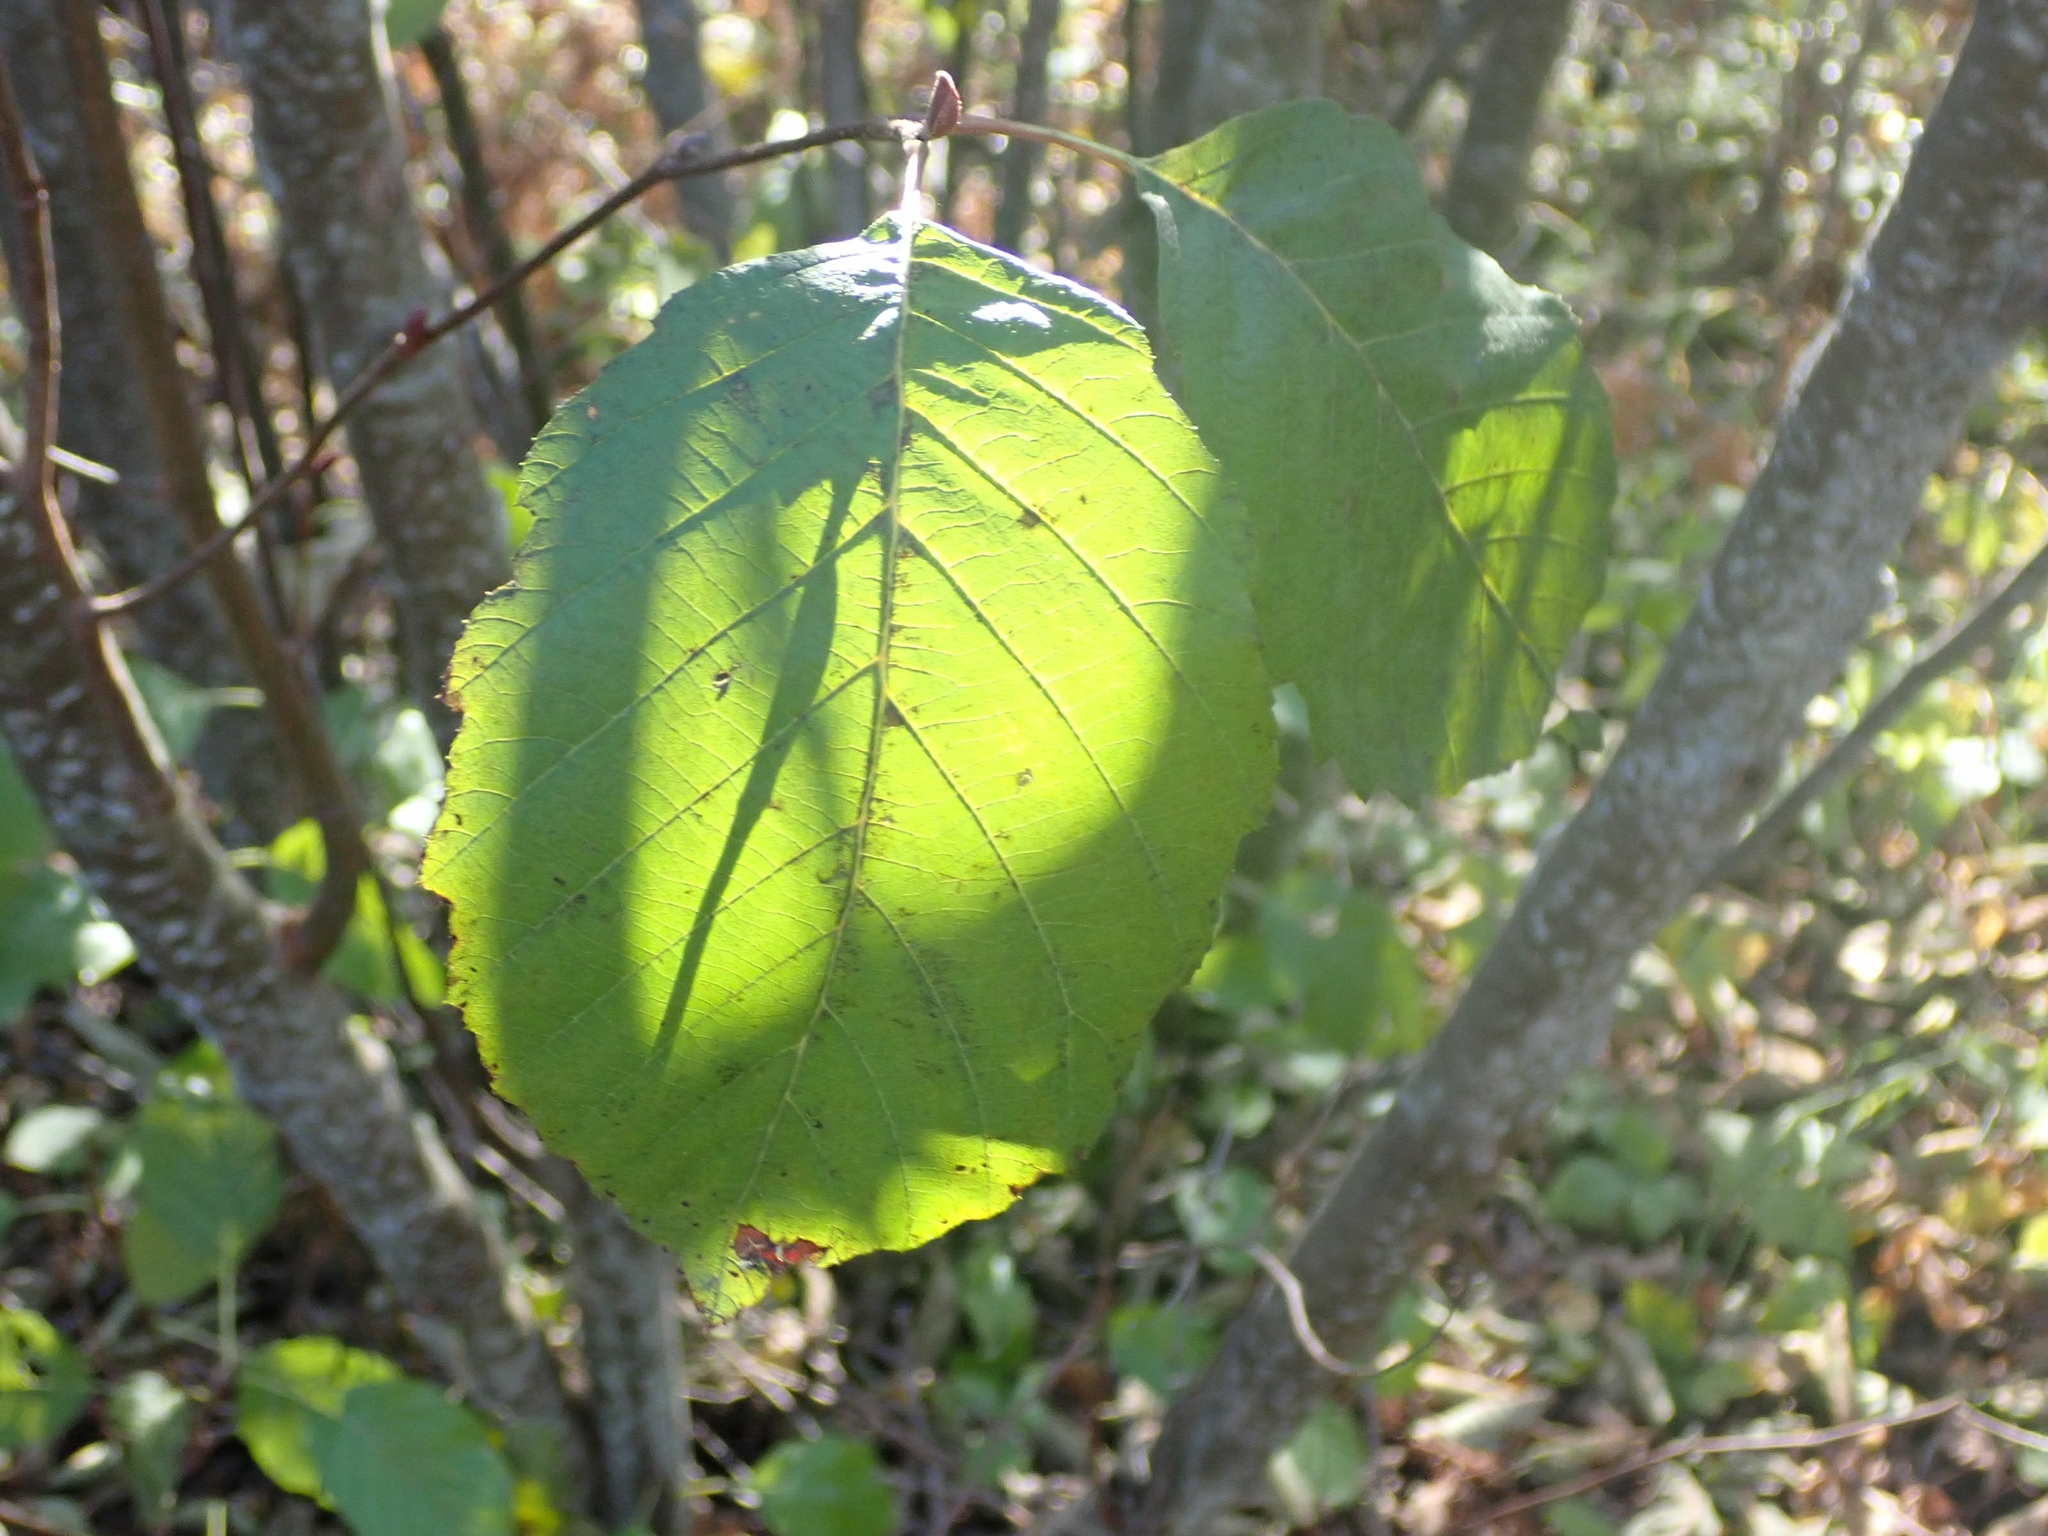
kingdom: Plantae
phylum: Tracheophyta
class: Magnoliopsida
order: Fagales
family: Betulaceae
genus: Alnus
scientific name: Alnus incana
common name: Grey alder
